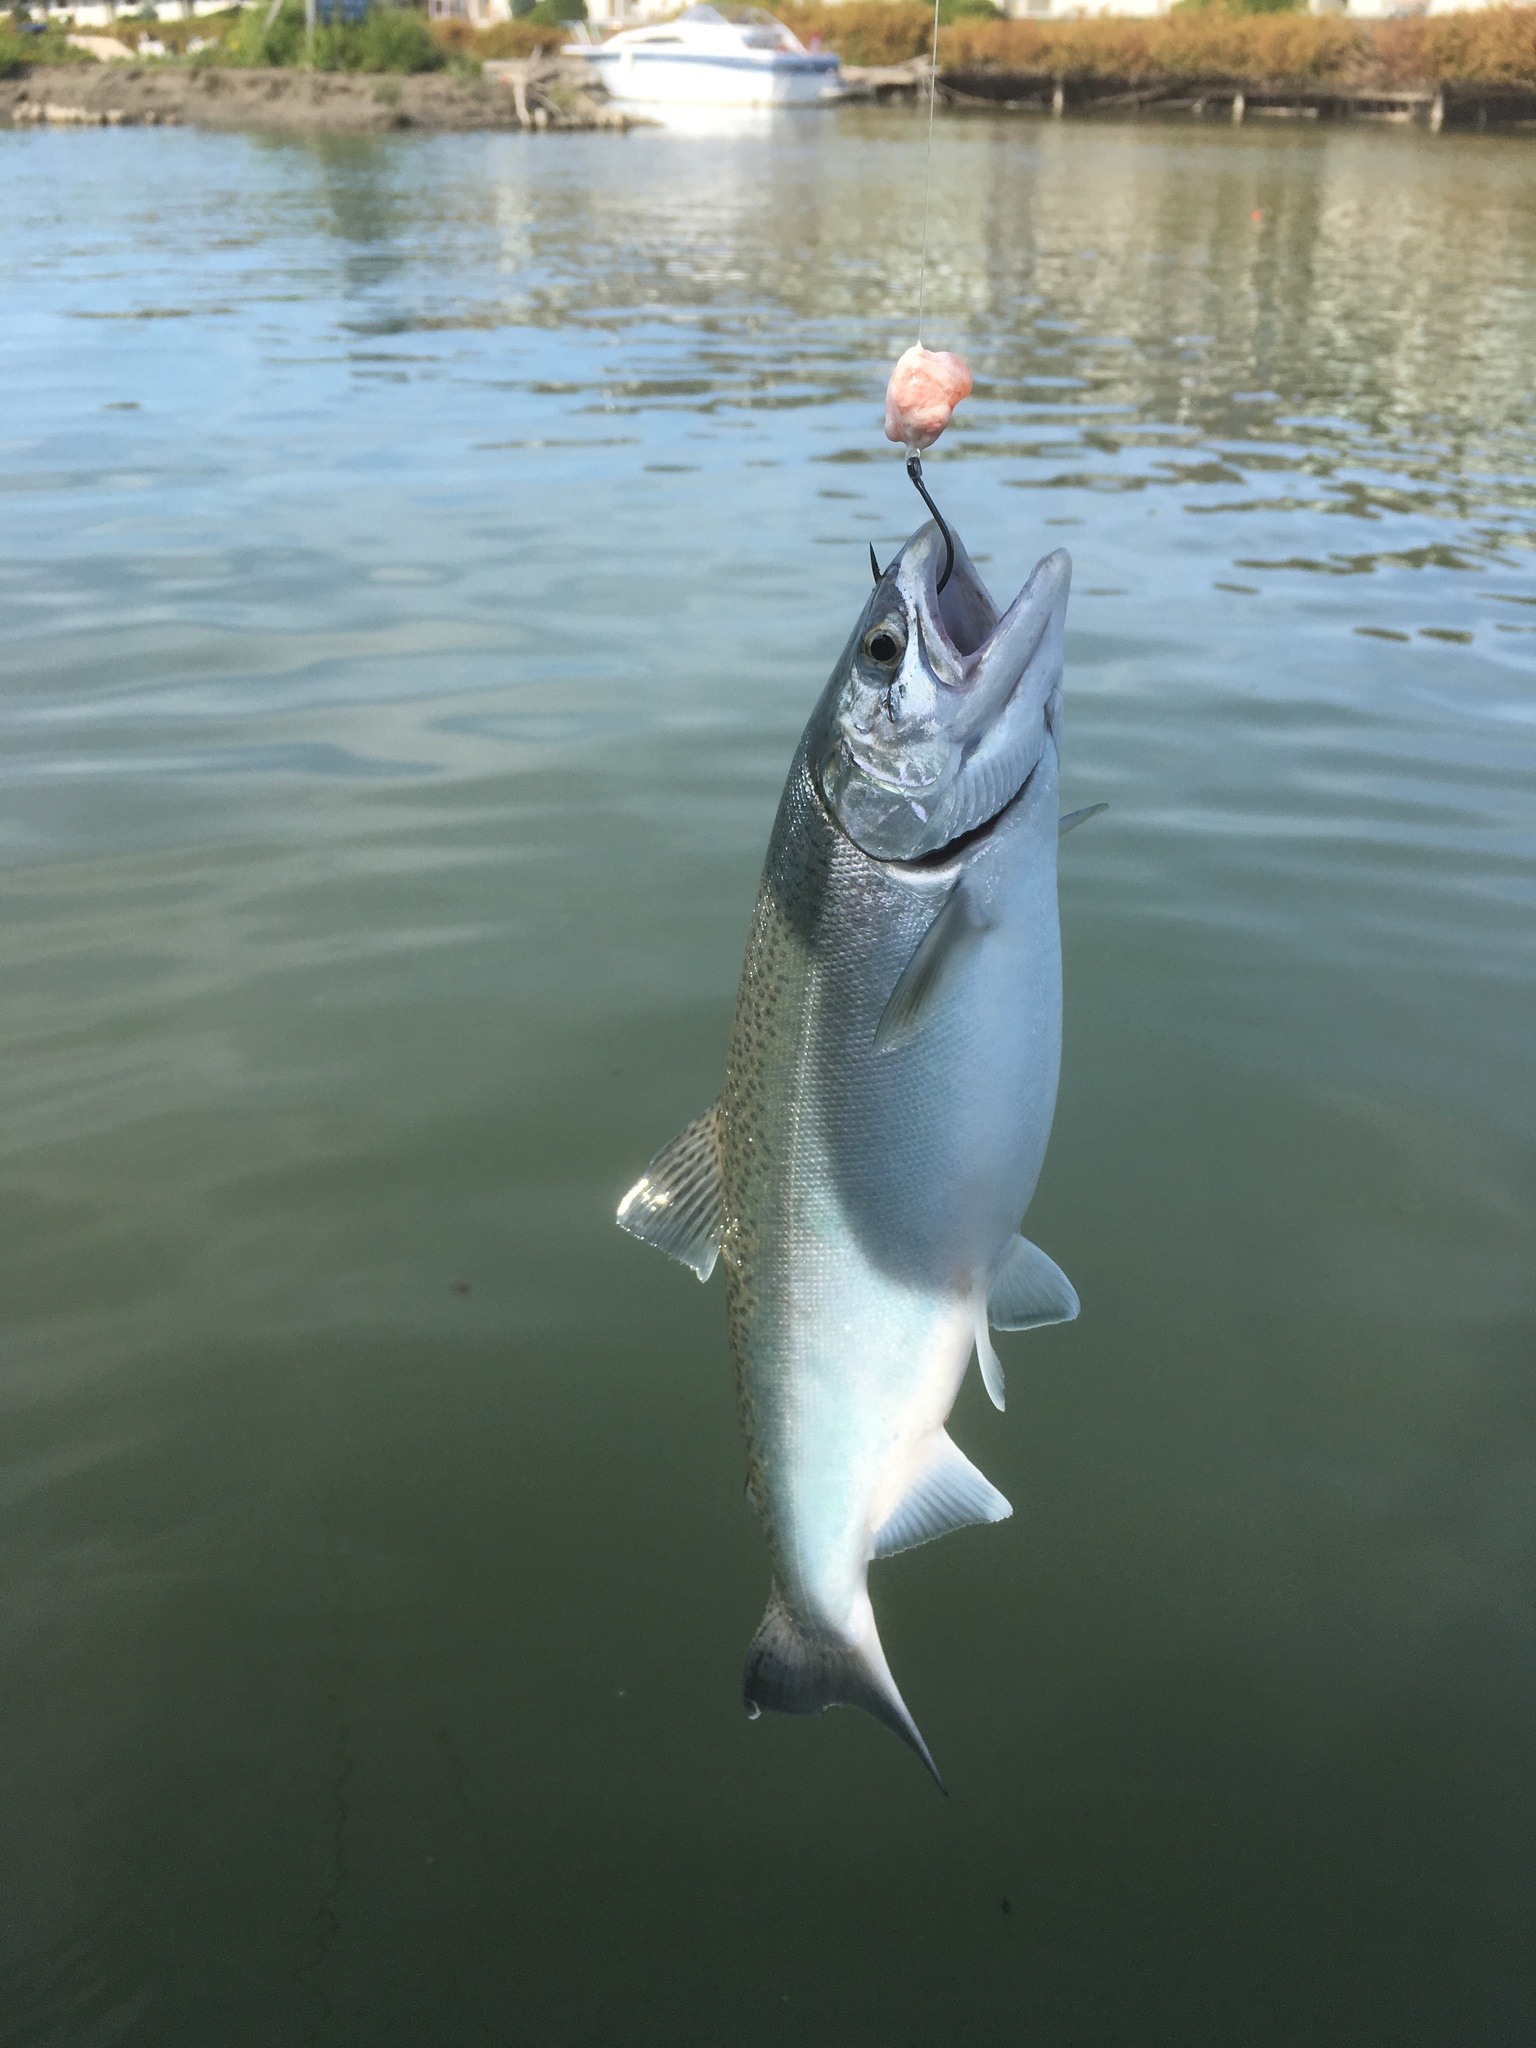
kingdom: Animalia
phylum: Chordata
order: Salmoniformes
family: Salmonidae
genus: Oncorhynchus
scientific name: Oncorhynchus kisutch
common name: Coho salmon
